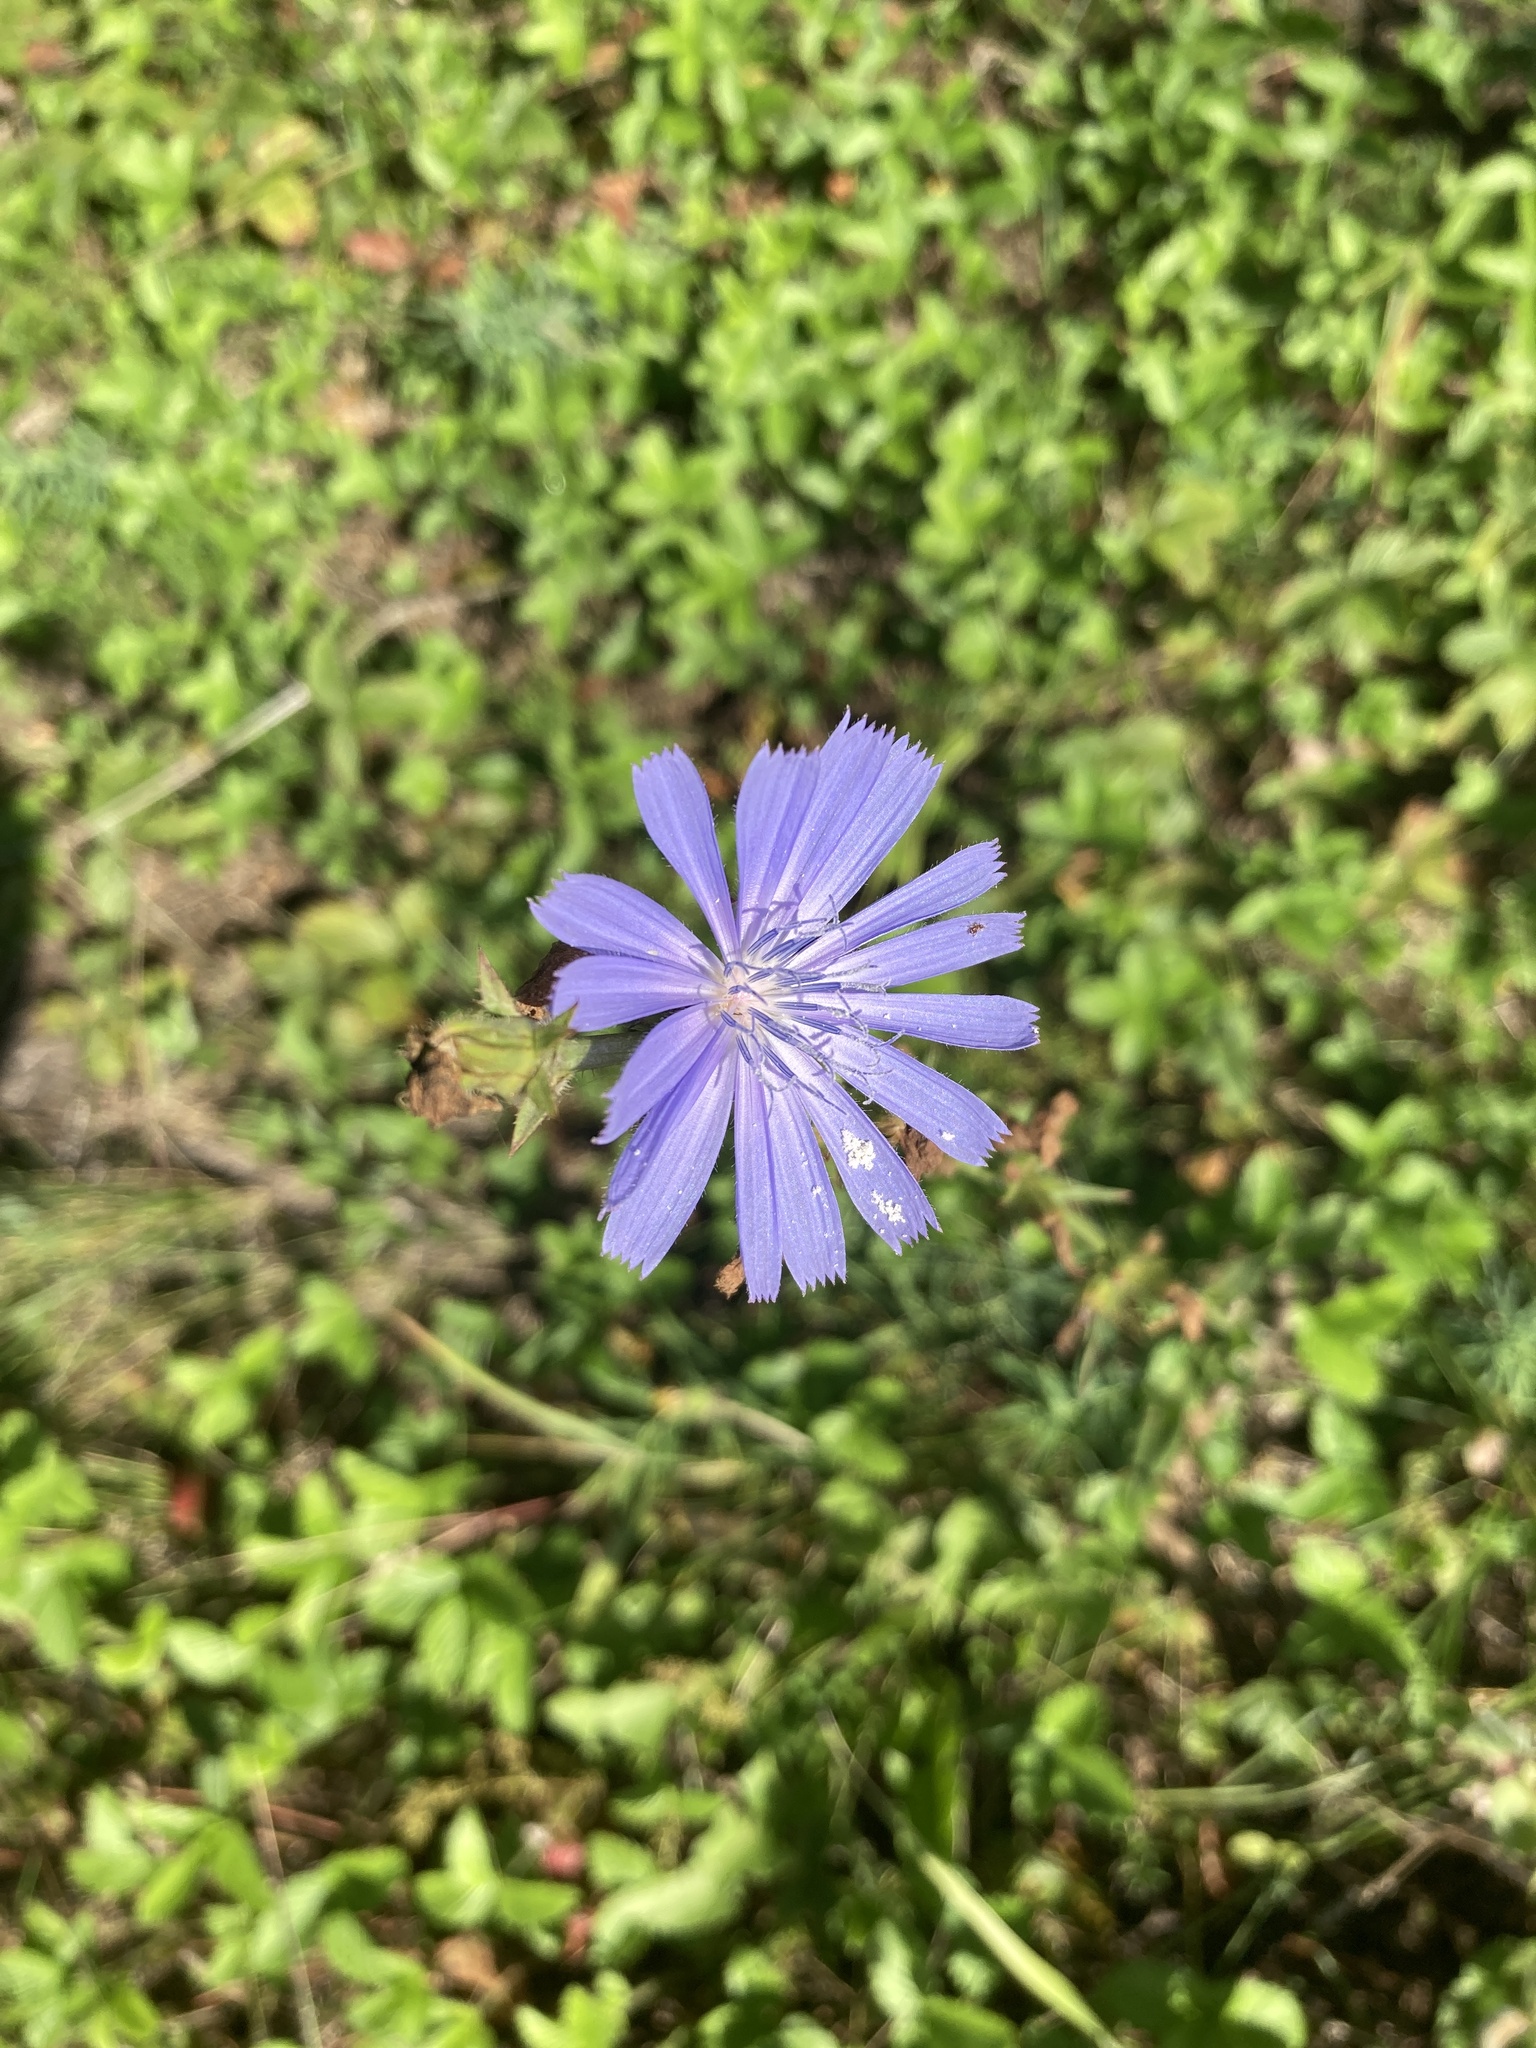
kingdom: Plantae
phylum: Tracheophyta
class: Magnoliopsida
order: Asterales
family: Asteraceae
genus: Cichorium
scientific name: Cichorium intybus
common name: Chicory
